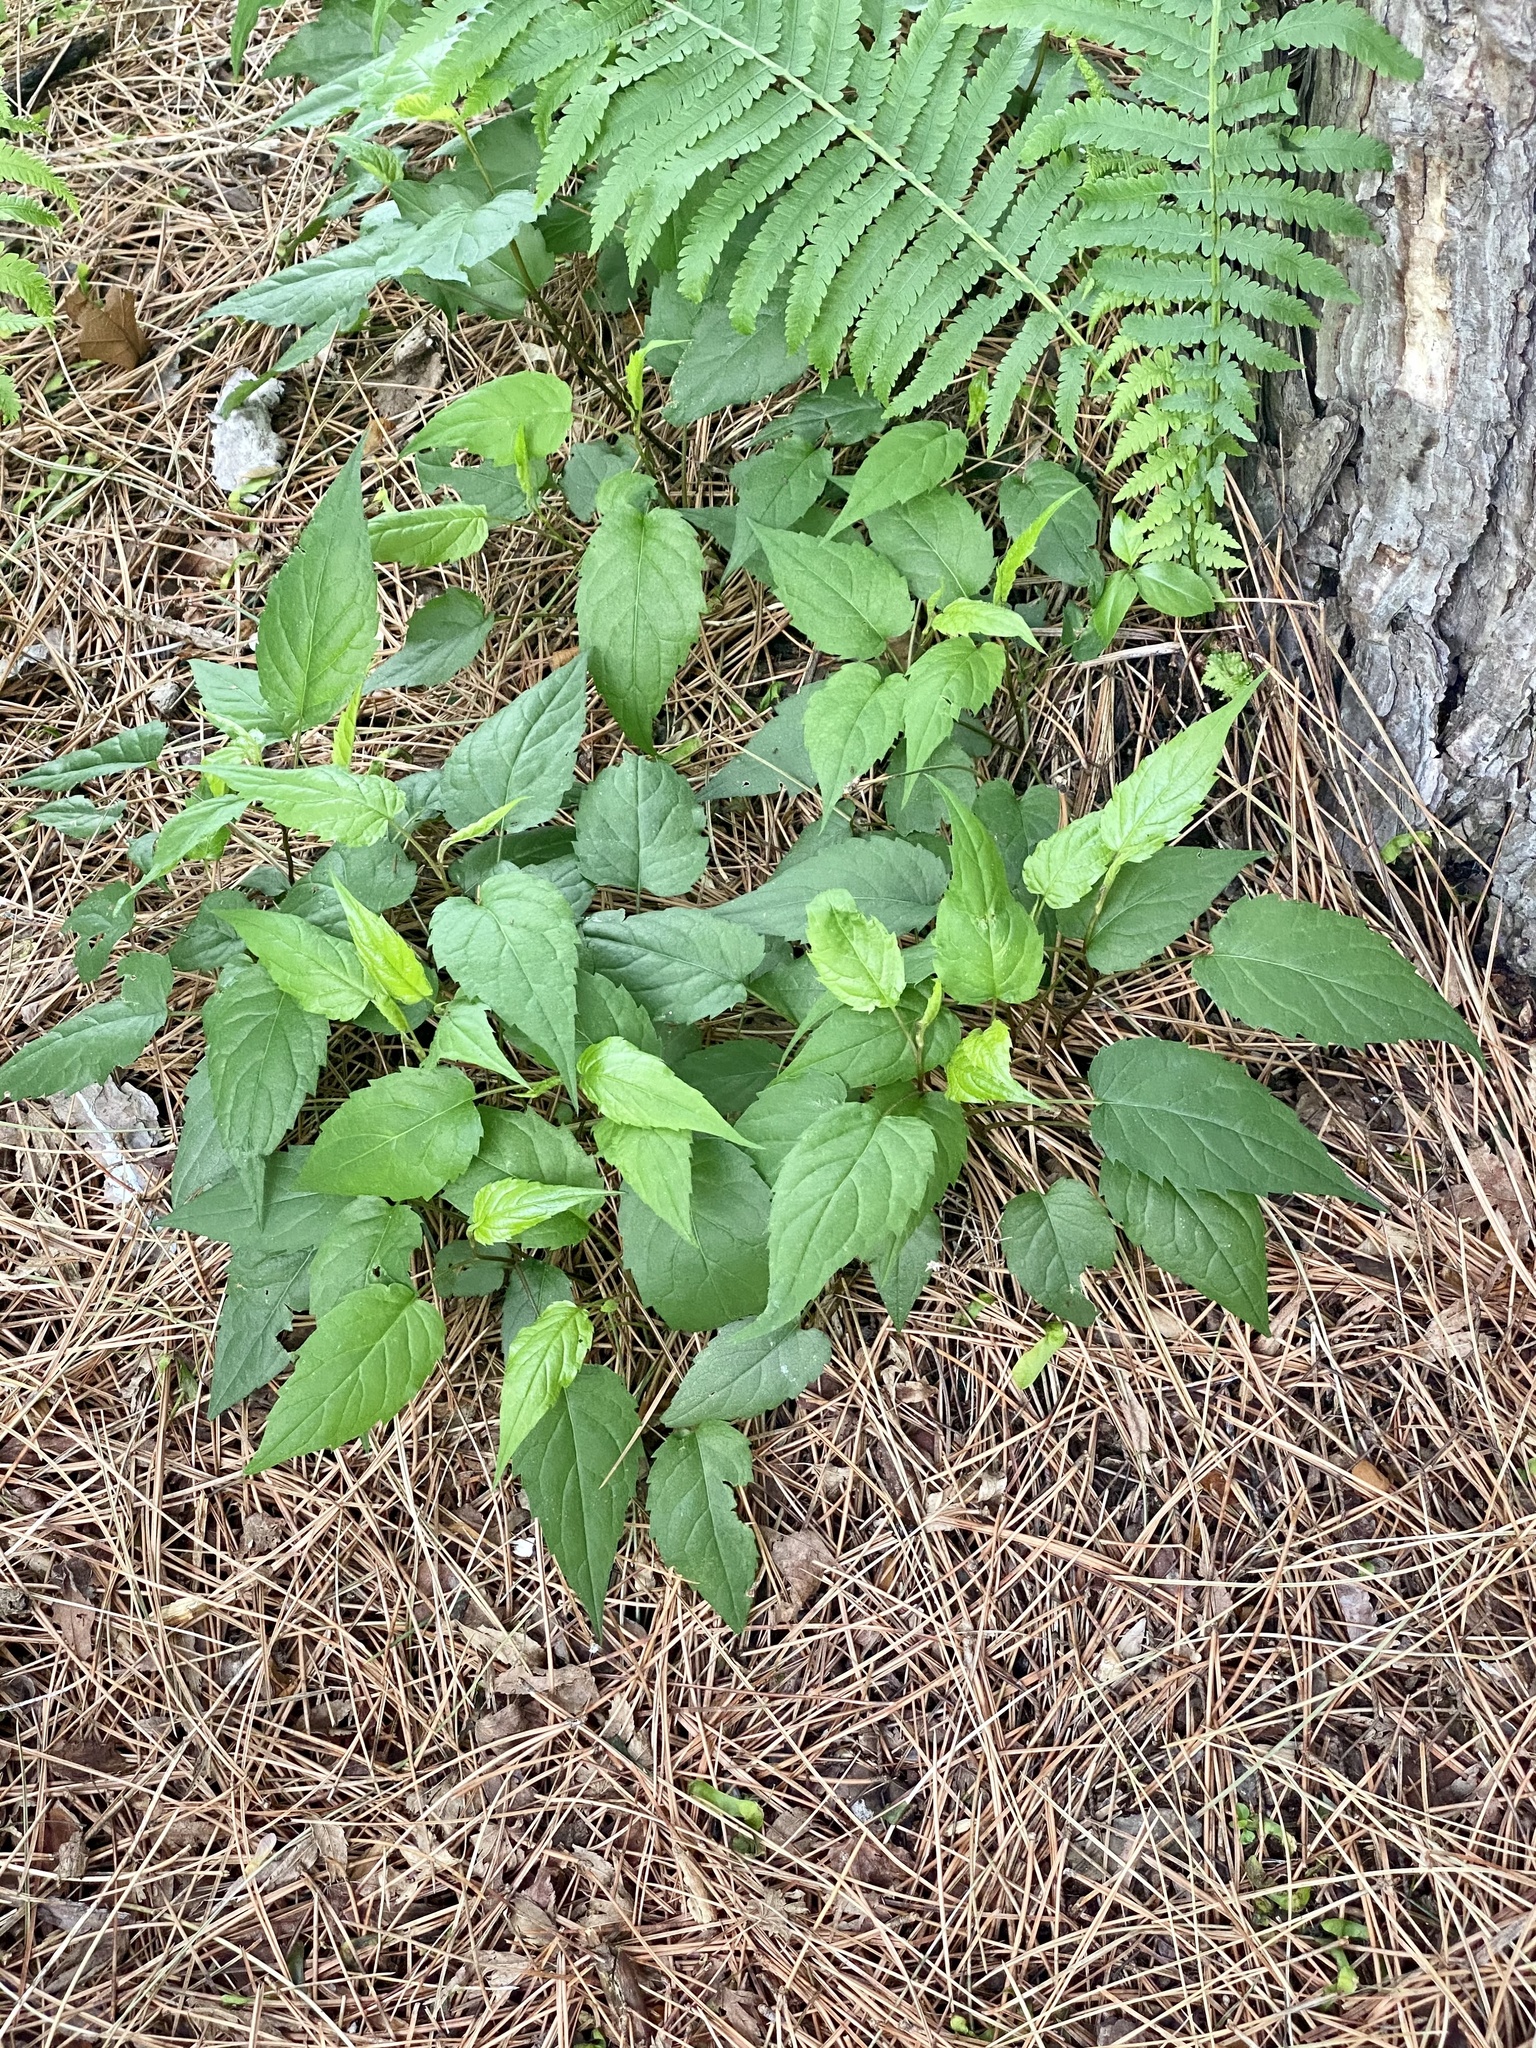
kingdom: Plantae
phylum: Tracheophyta
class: Magnoliopsida
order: Asterales
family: Asteraceae
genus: Eurybia
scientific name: Eurybia divaricata
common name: White wood aster
